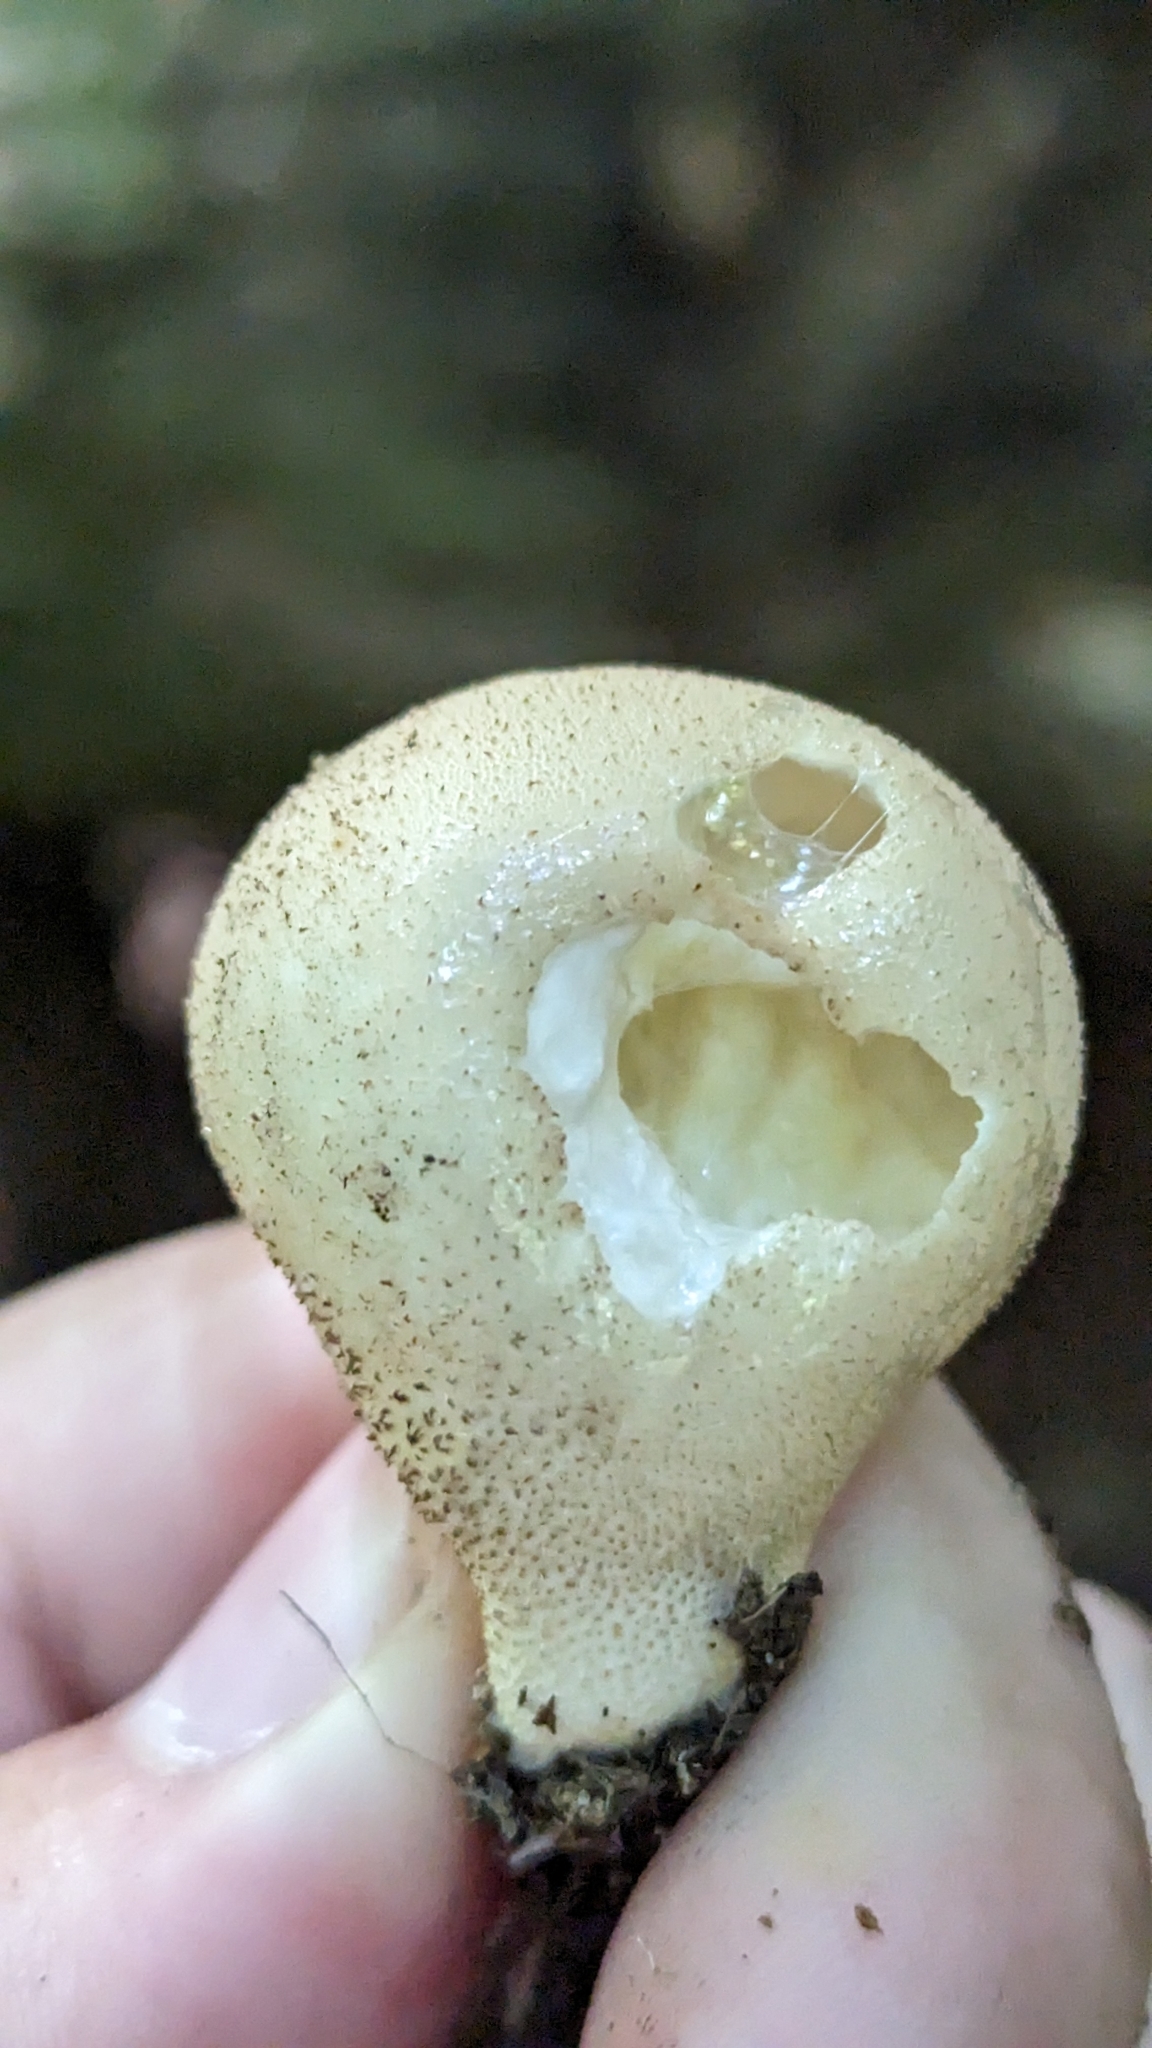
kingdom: Fungi
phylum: Basidiomycota
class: Agaricomycetes
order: Agaricales
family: Lycoperdaceae
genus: Apioperdon
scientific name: Apioperdon pyriforme
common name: Pear-shaped puffball
